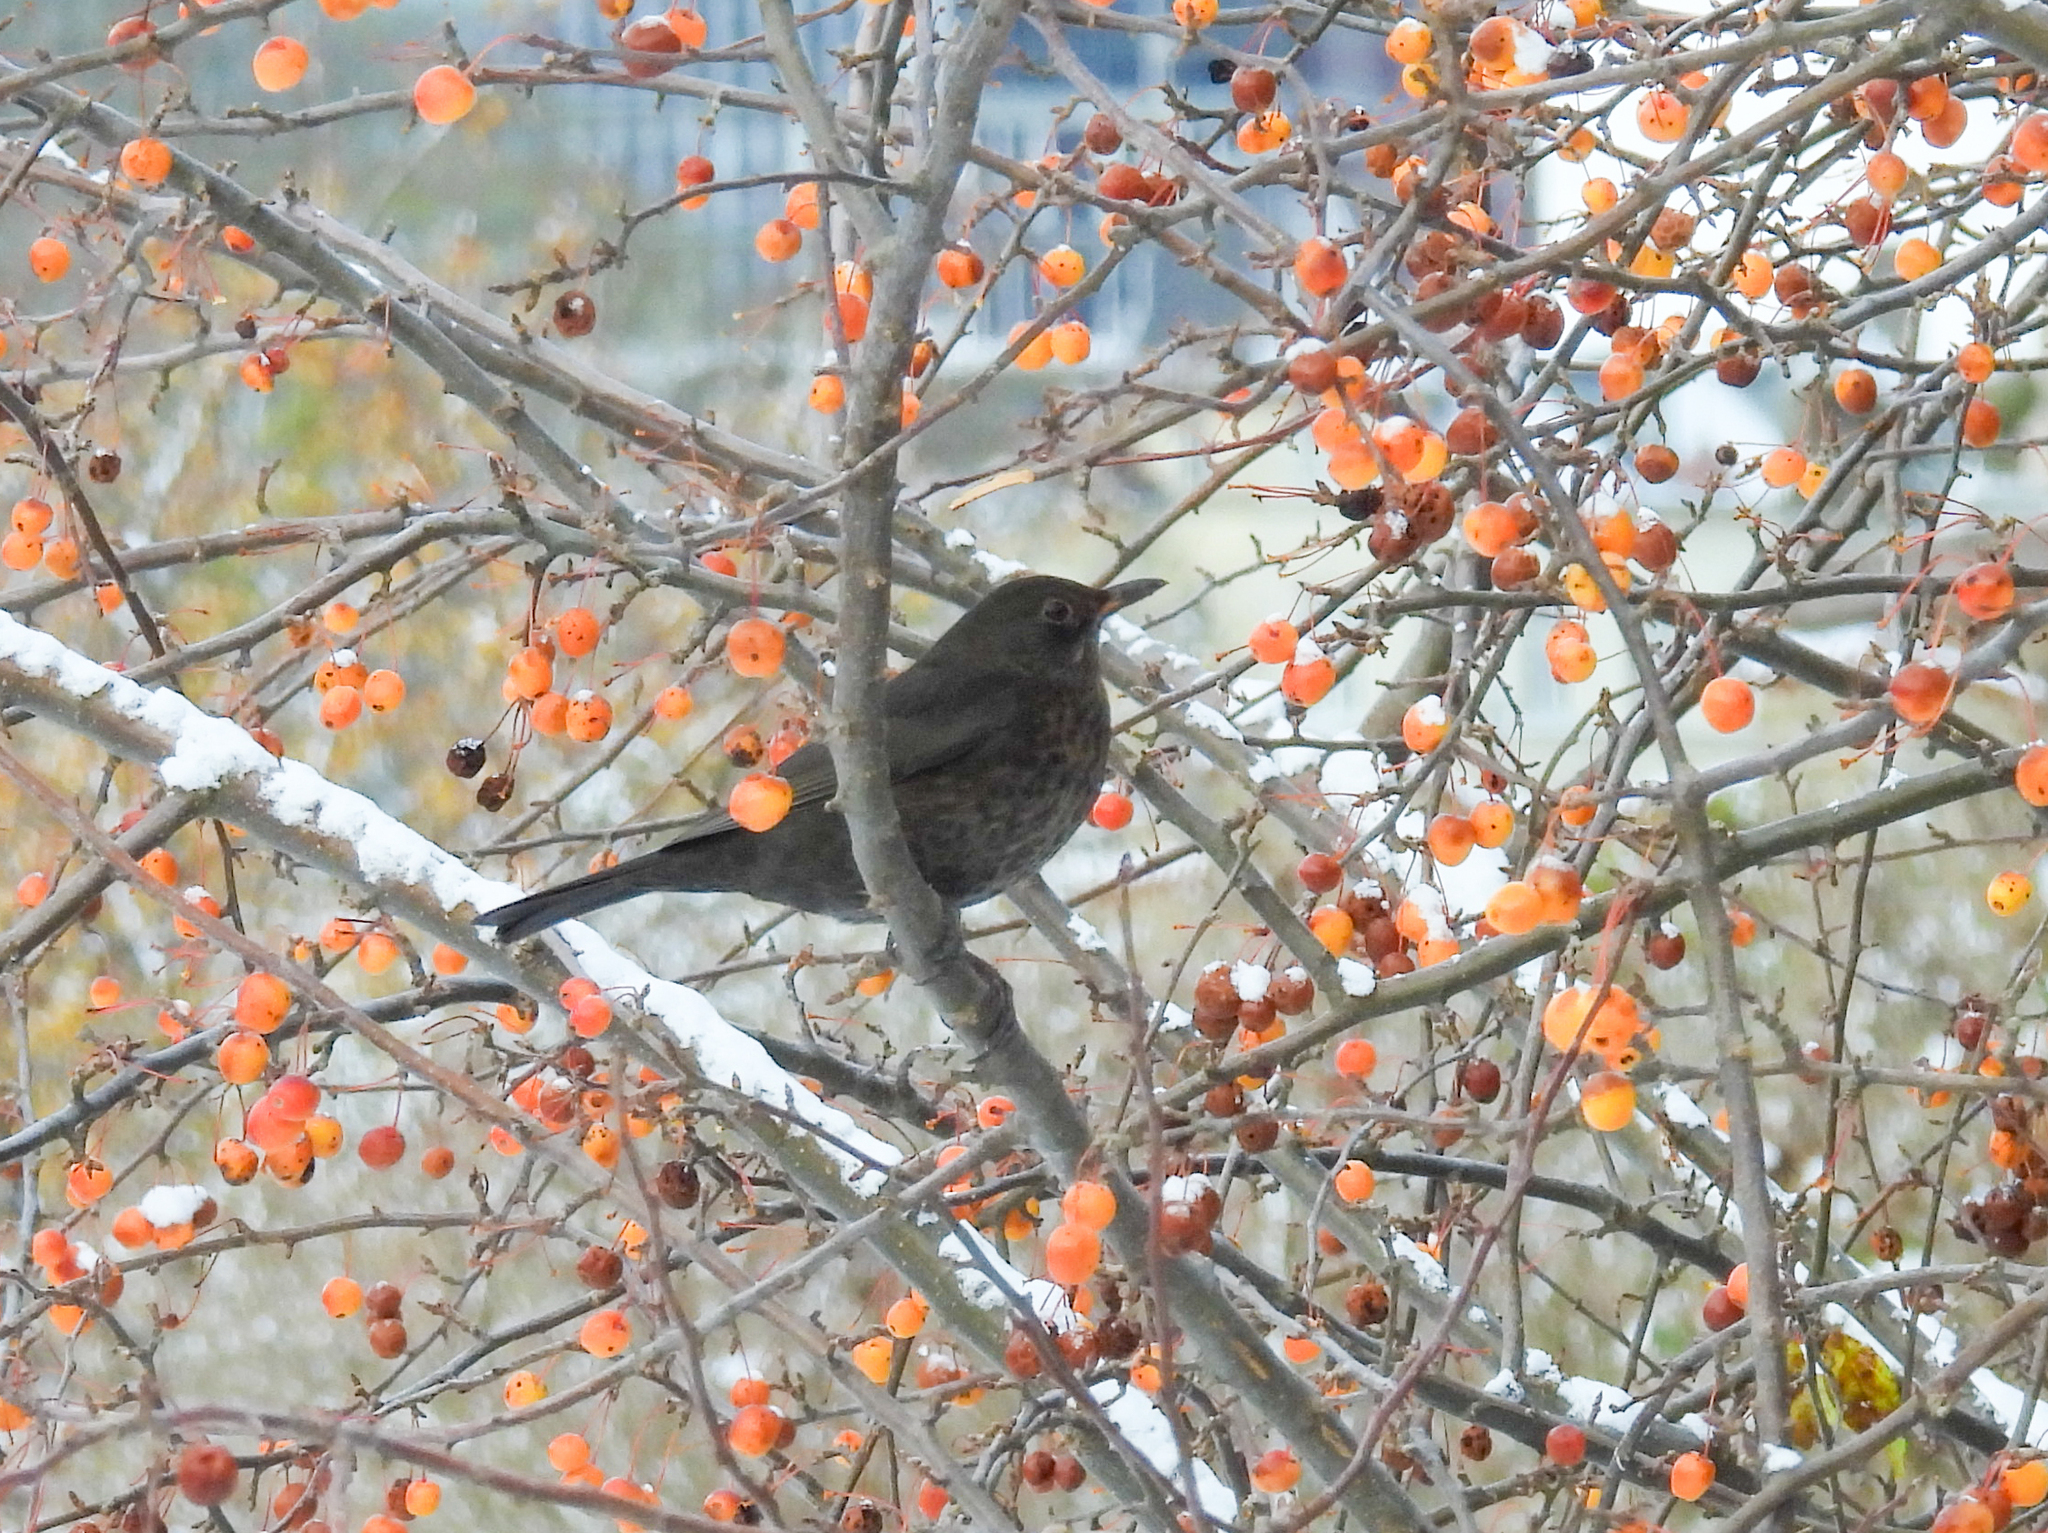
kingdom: Animalia
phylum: Chordata
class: Aves
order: Passeriformes
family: Turdidae
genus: Turdus
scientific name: Turdus merula
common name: Common blackbird
